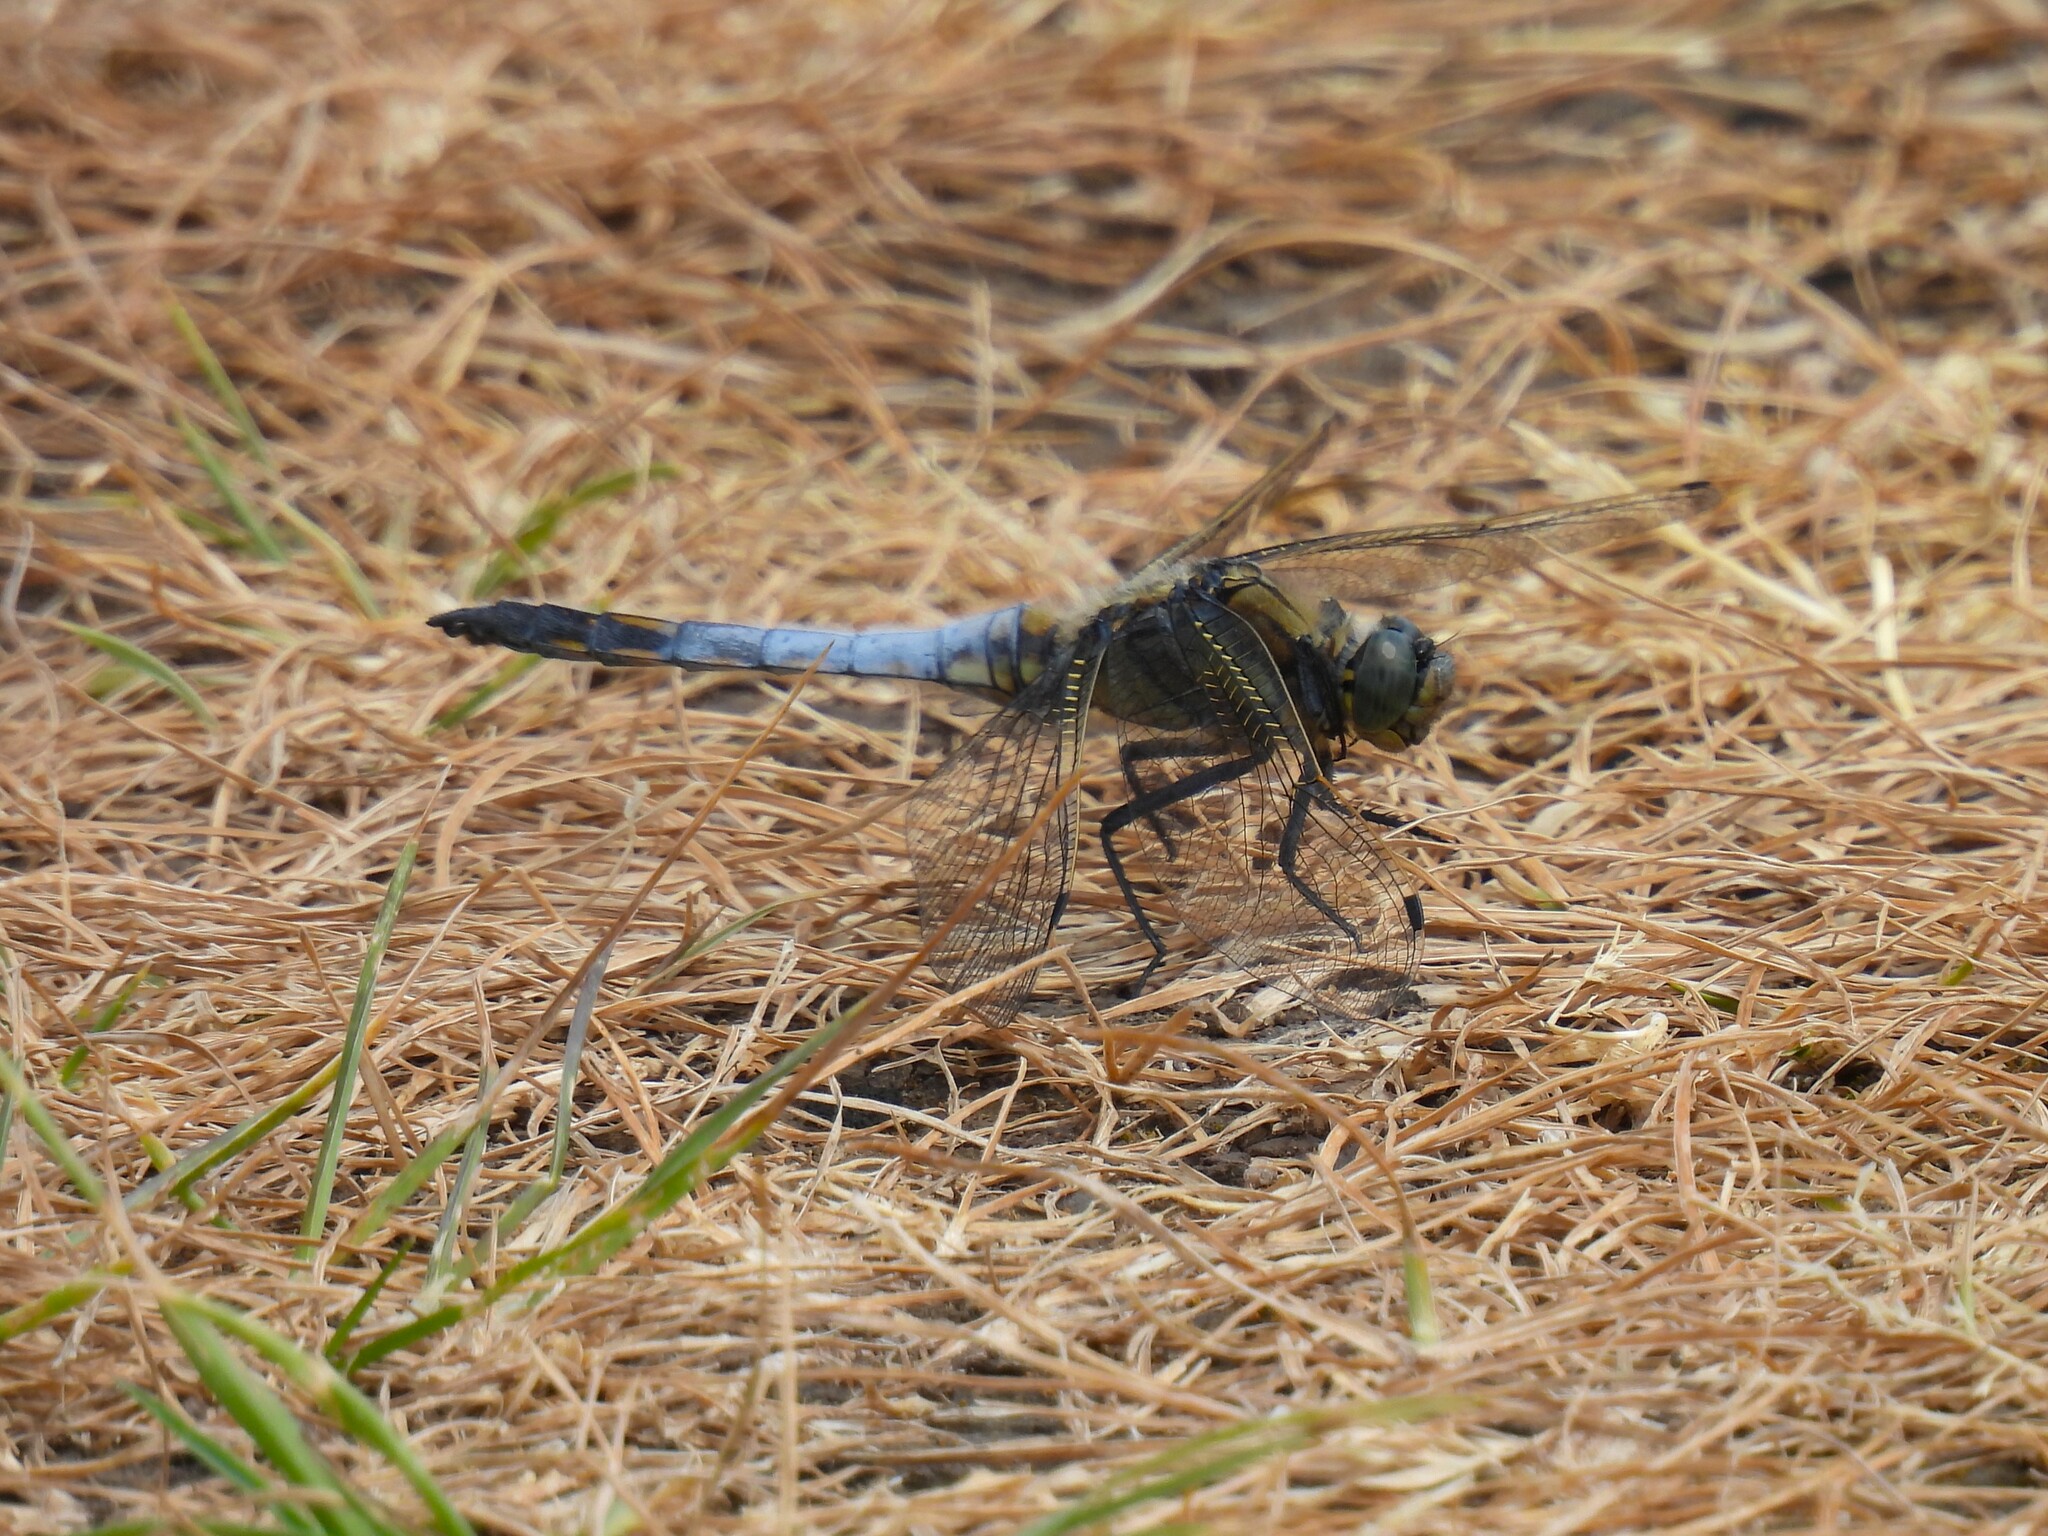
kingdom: Animalia
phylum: Arthropoda
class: Insecta
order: Odonata
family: Libellulidae
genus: Orthetrum
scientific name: Orthetrum cancellatum
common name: Black-tailed skimmer
